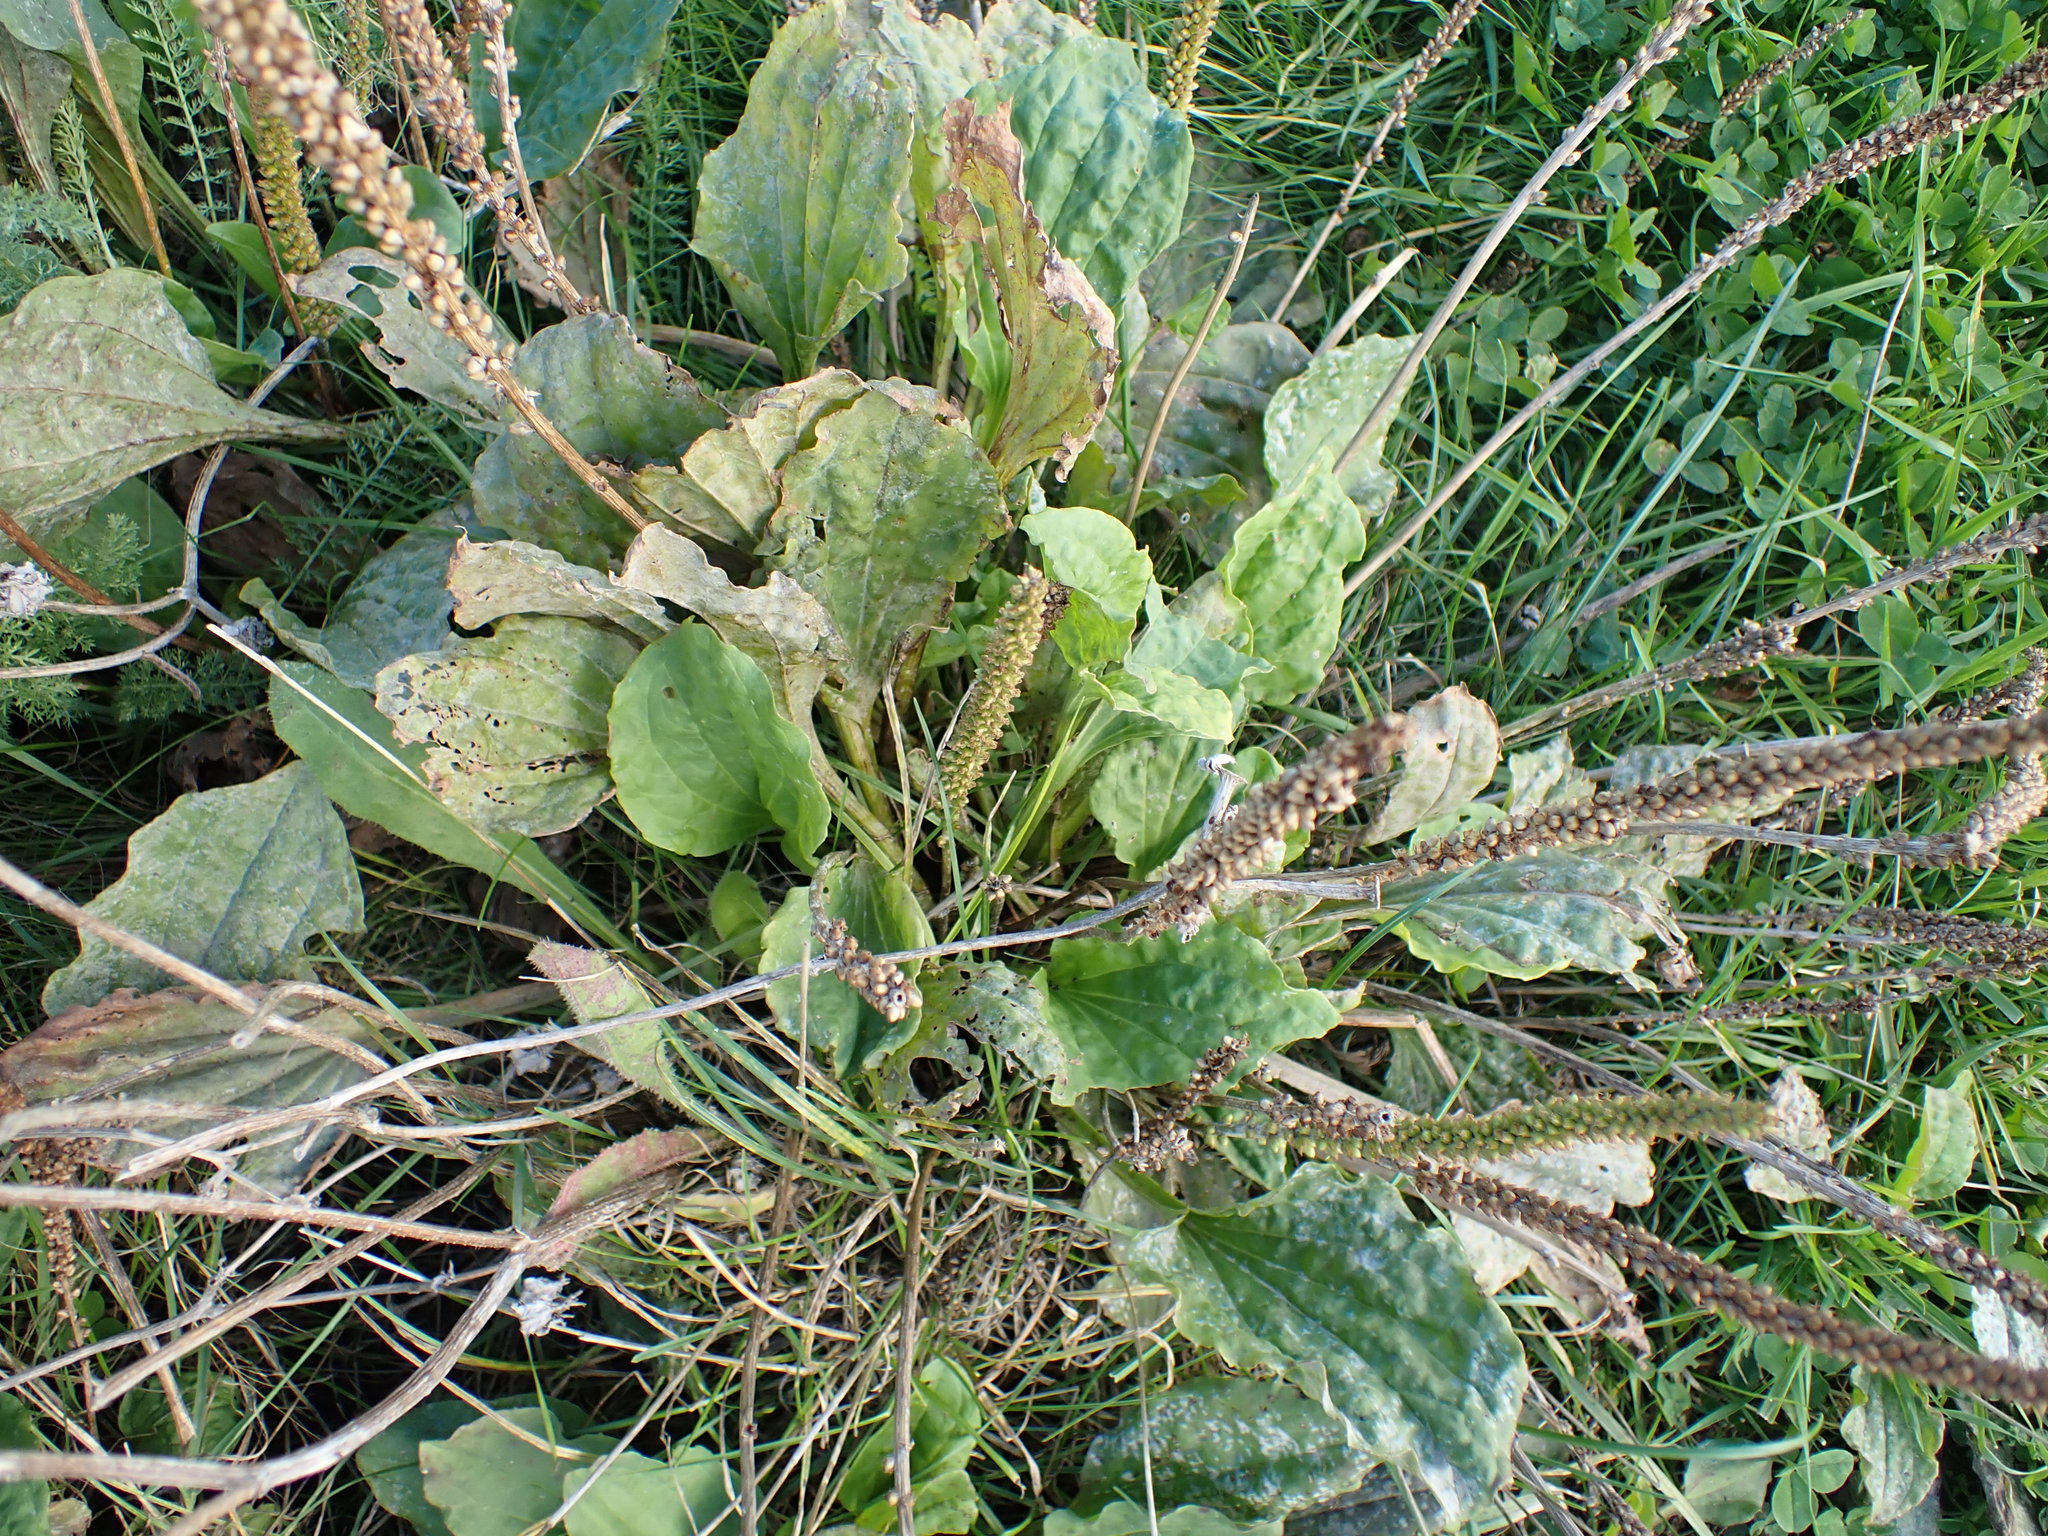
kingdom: Plantae
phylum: Tracheophyta
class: Magnoliopsida
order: Lamiales
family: Plantaginaceae
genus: Plantago
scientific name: Plantago major
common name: Common plantain
